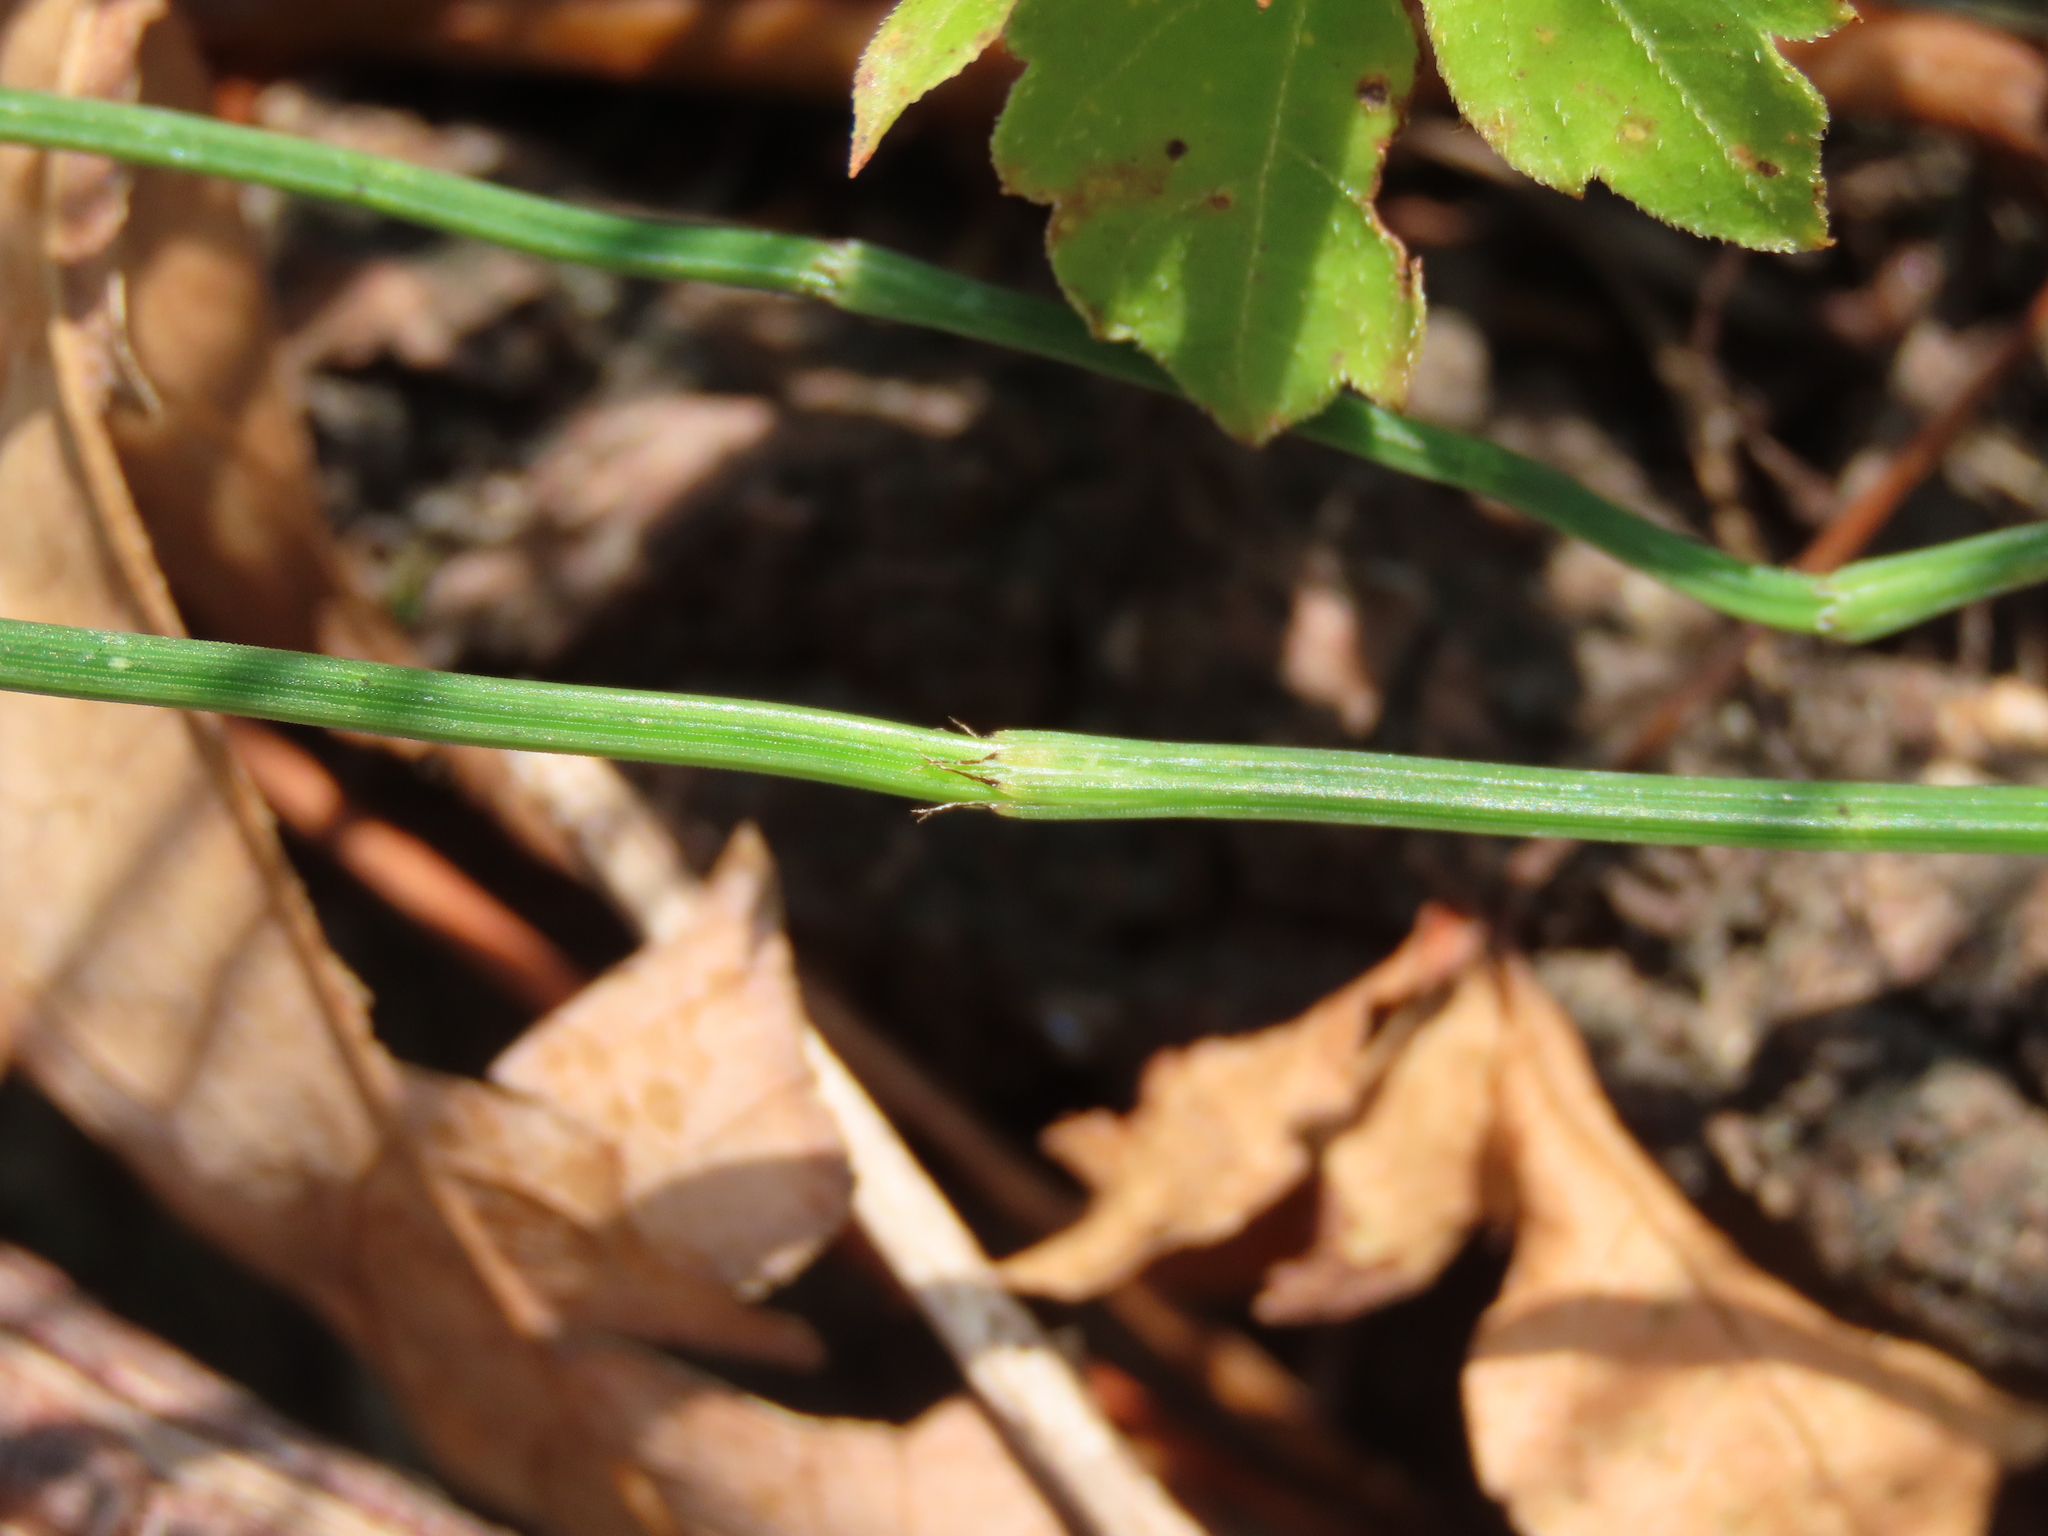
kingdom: Plantae
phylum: Tracheophyta
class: Polypodiopsida
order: Equisetales
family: Equisetaceae
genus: Equisetum
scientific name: Equisetum ramosissimum
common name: Branched horsetail
